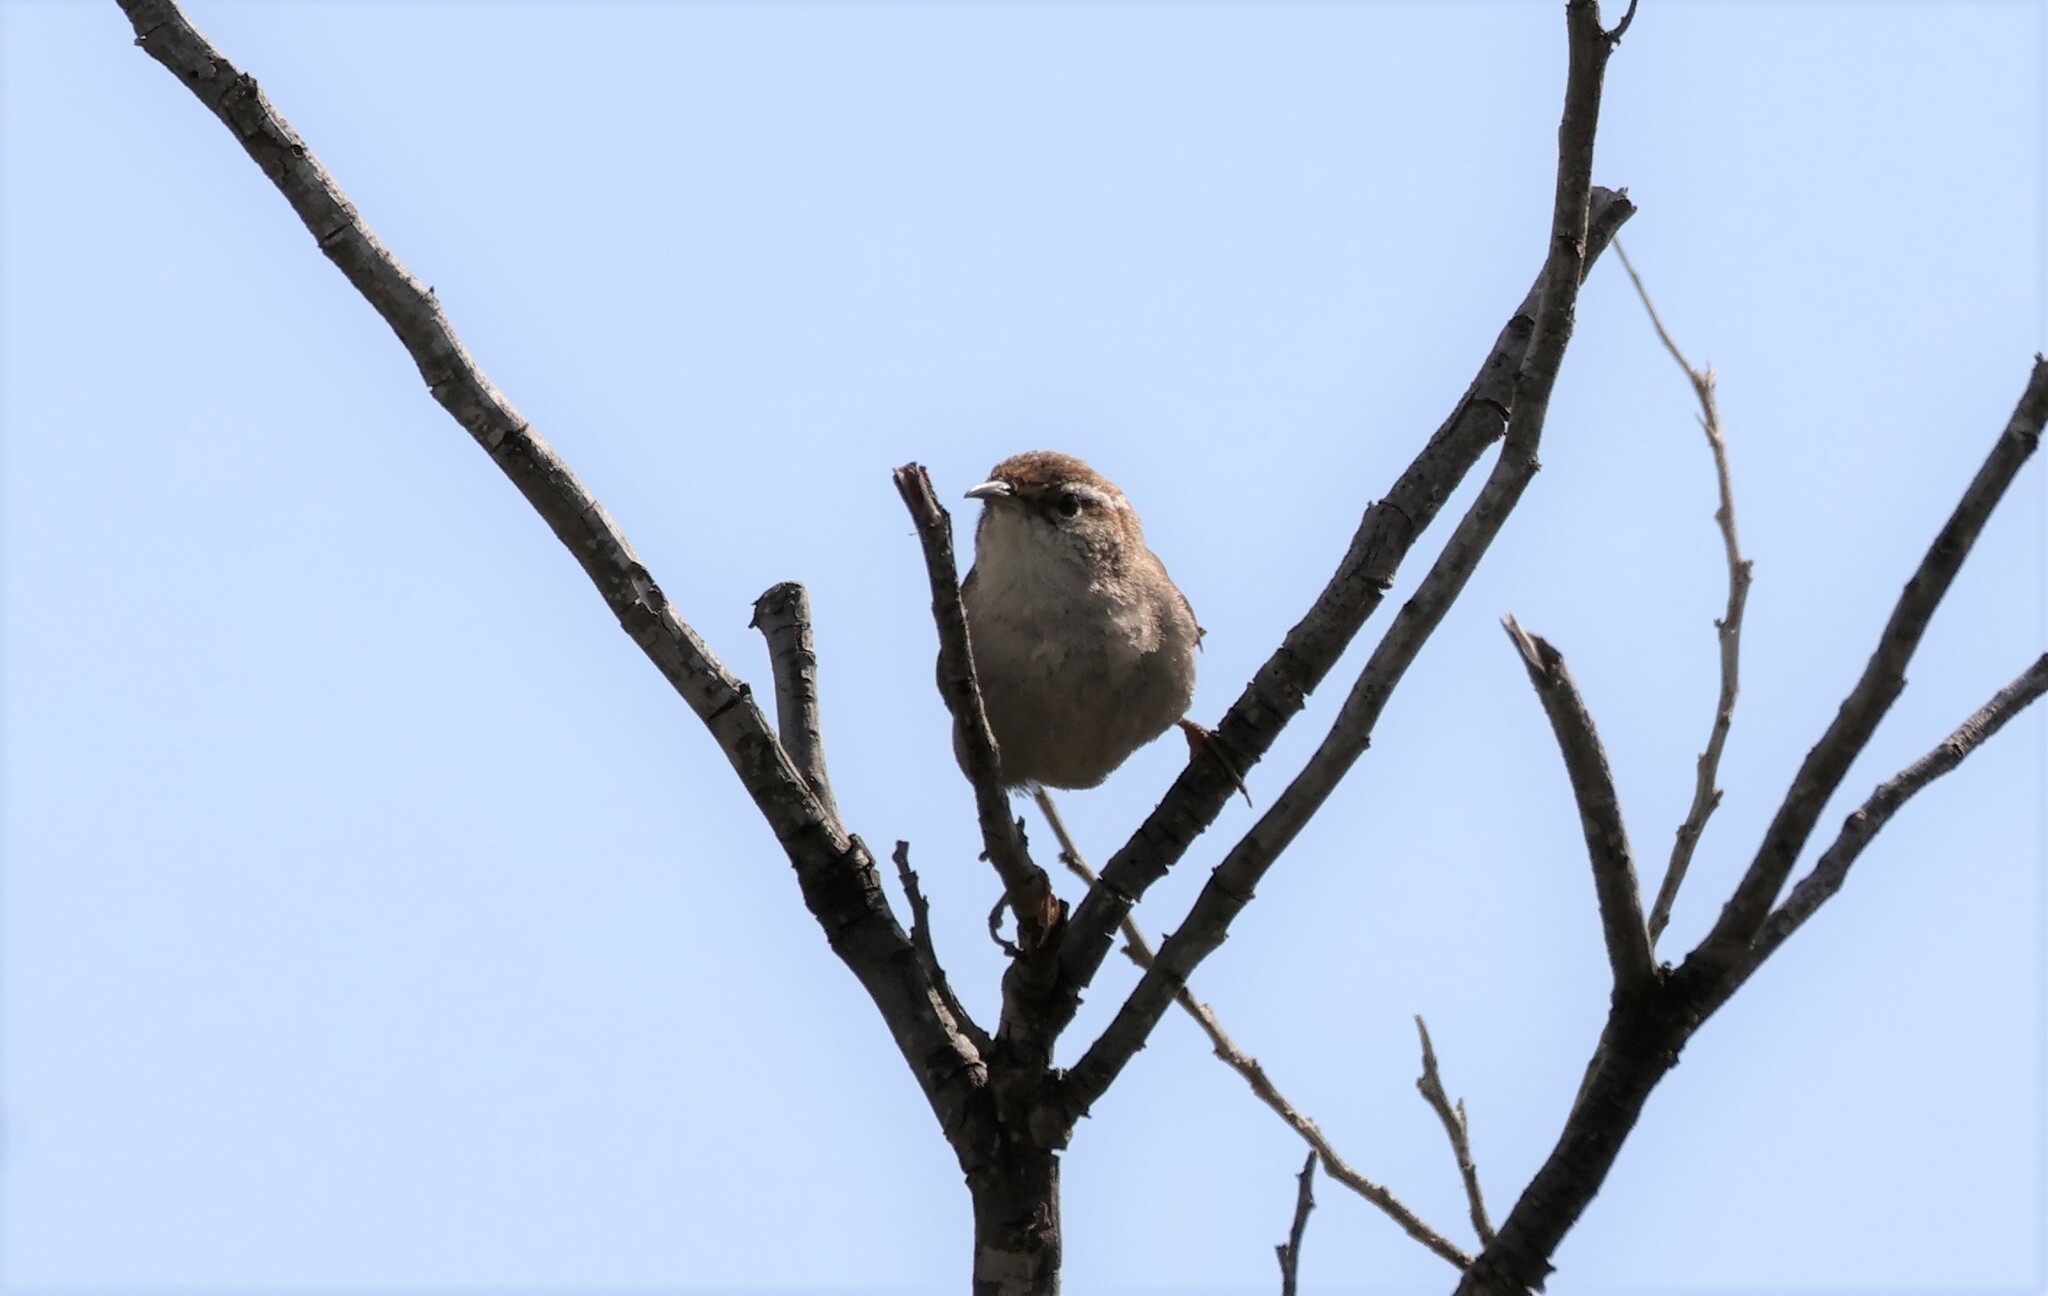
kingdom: Animalia
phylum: Chordata
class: Aves
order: Passeriformes
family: Troglodytidae
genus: Thryomanes
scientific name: Thryomanes bewickii
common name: Bewick's wren
